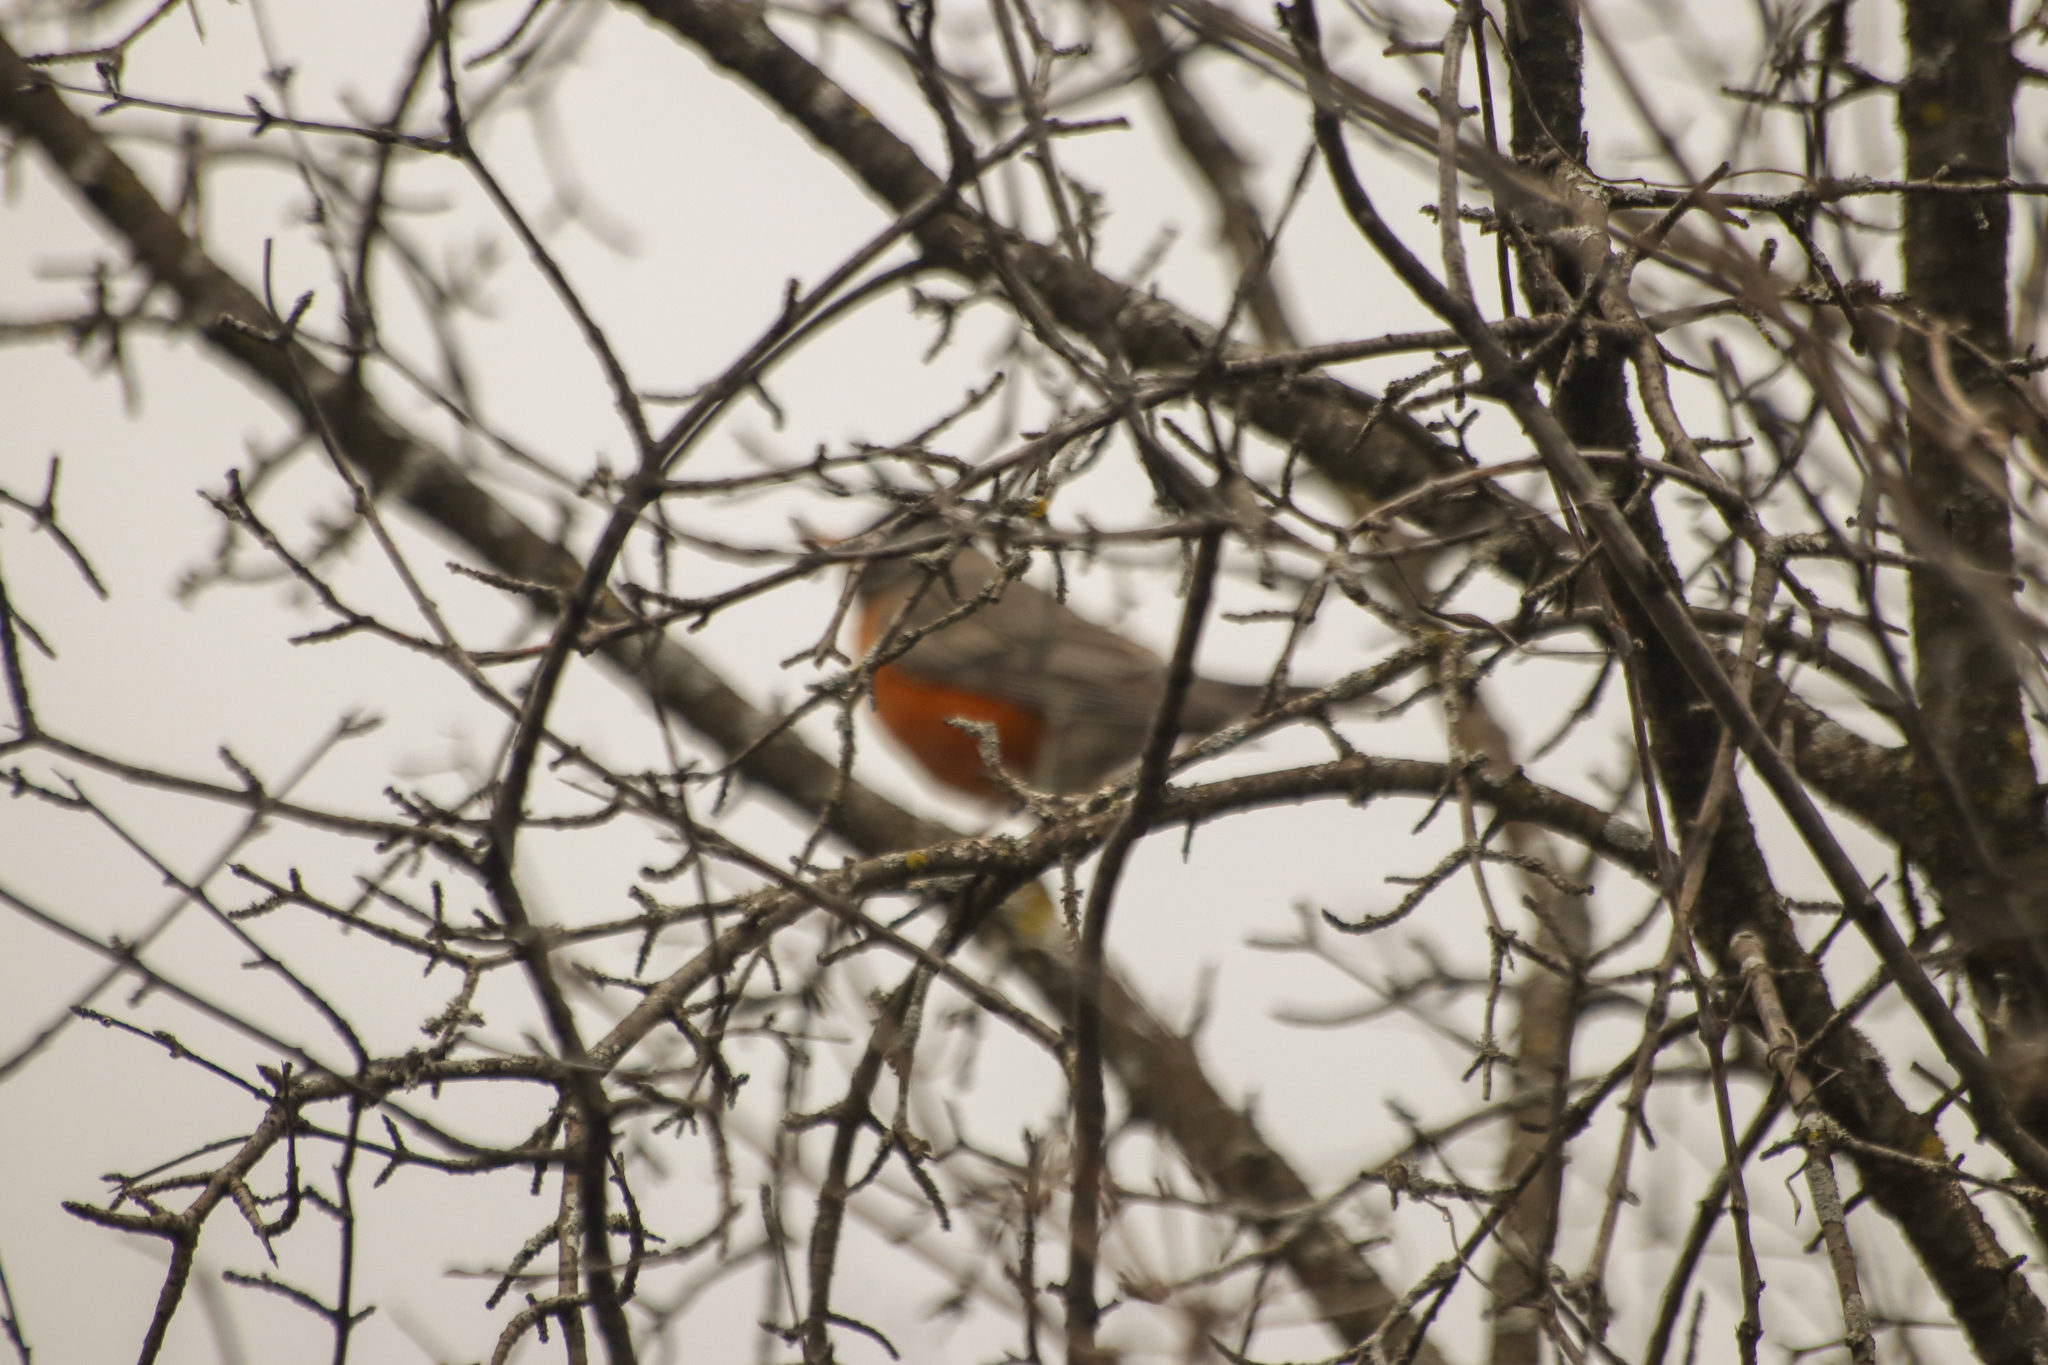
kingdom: Animalia
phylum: Chordata
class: Aves
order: Passeriformes
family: Turdidae
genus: Turdus
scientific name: Turdus migratorius
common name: American robin
